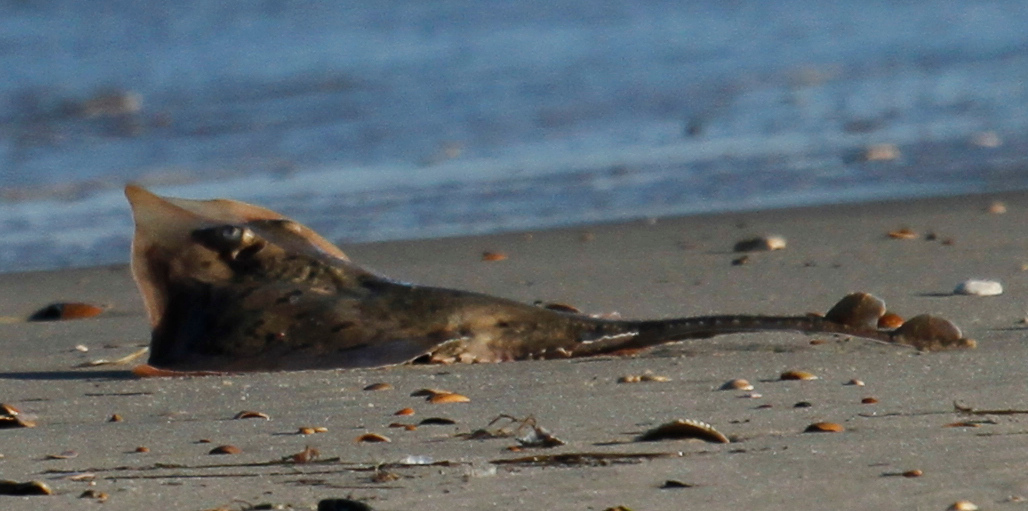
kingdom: Animalia
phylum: Chordata
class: Elasmobranchii
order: Rajiformes
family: Rajidae
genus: Raja
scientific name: Raja eglanteria
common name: Clearnose skate
